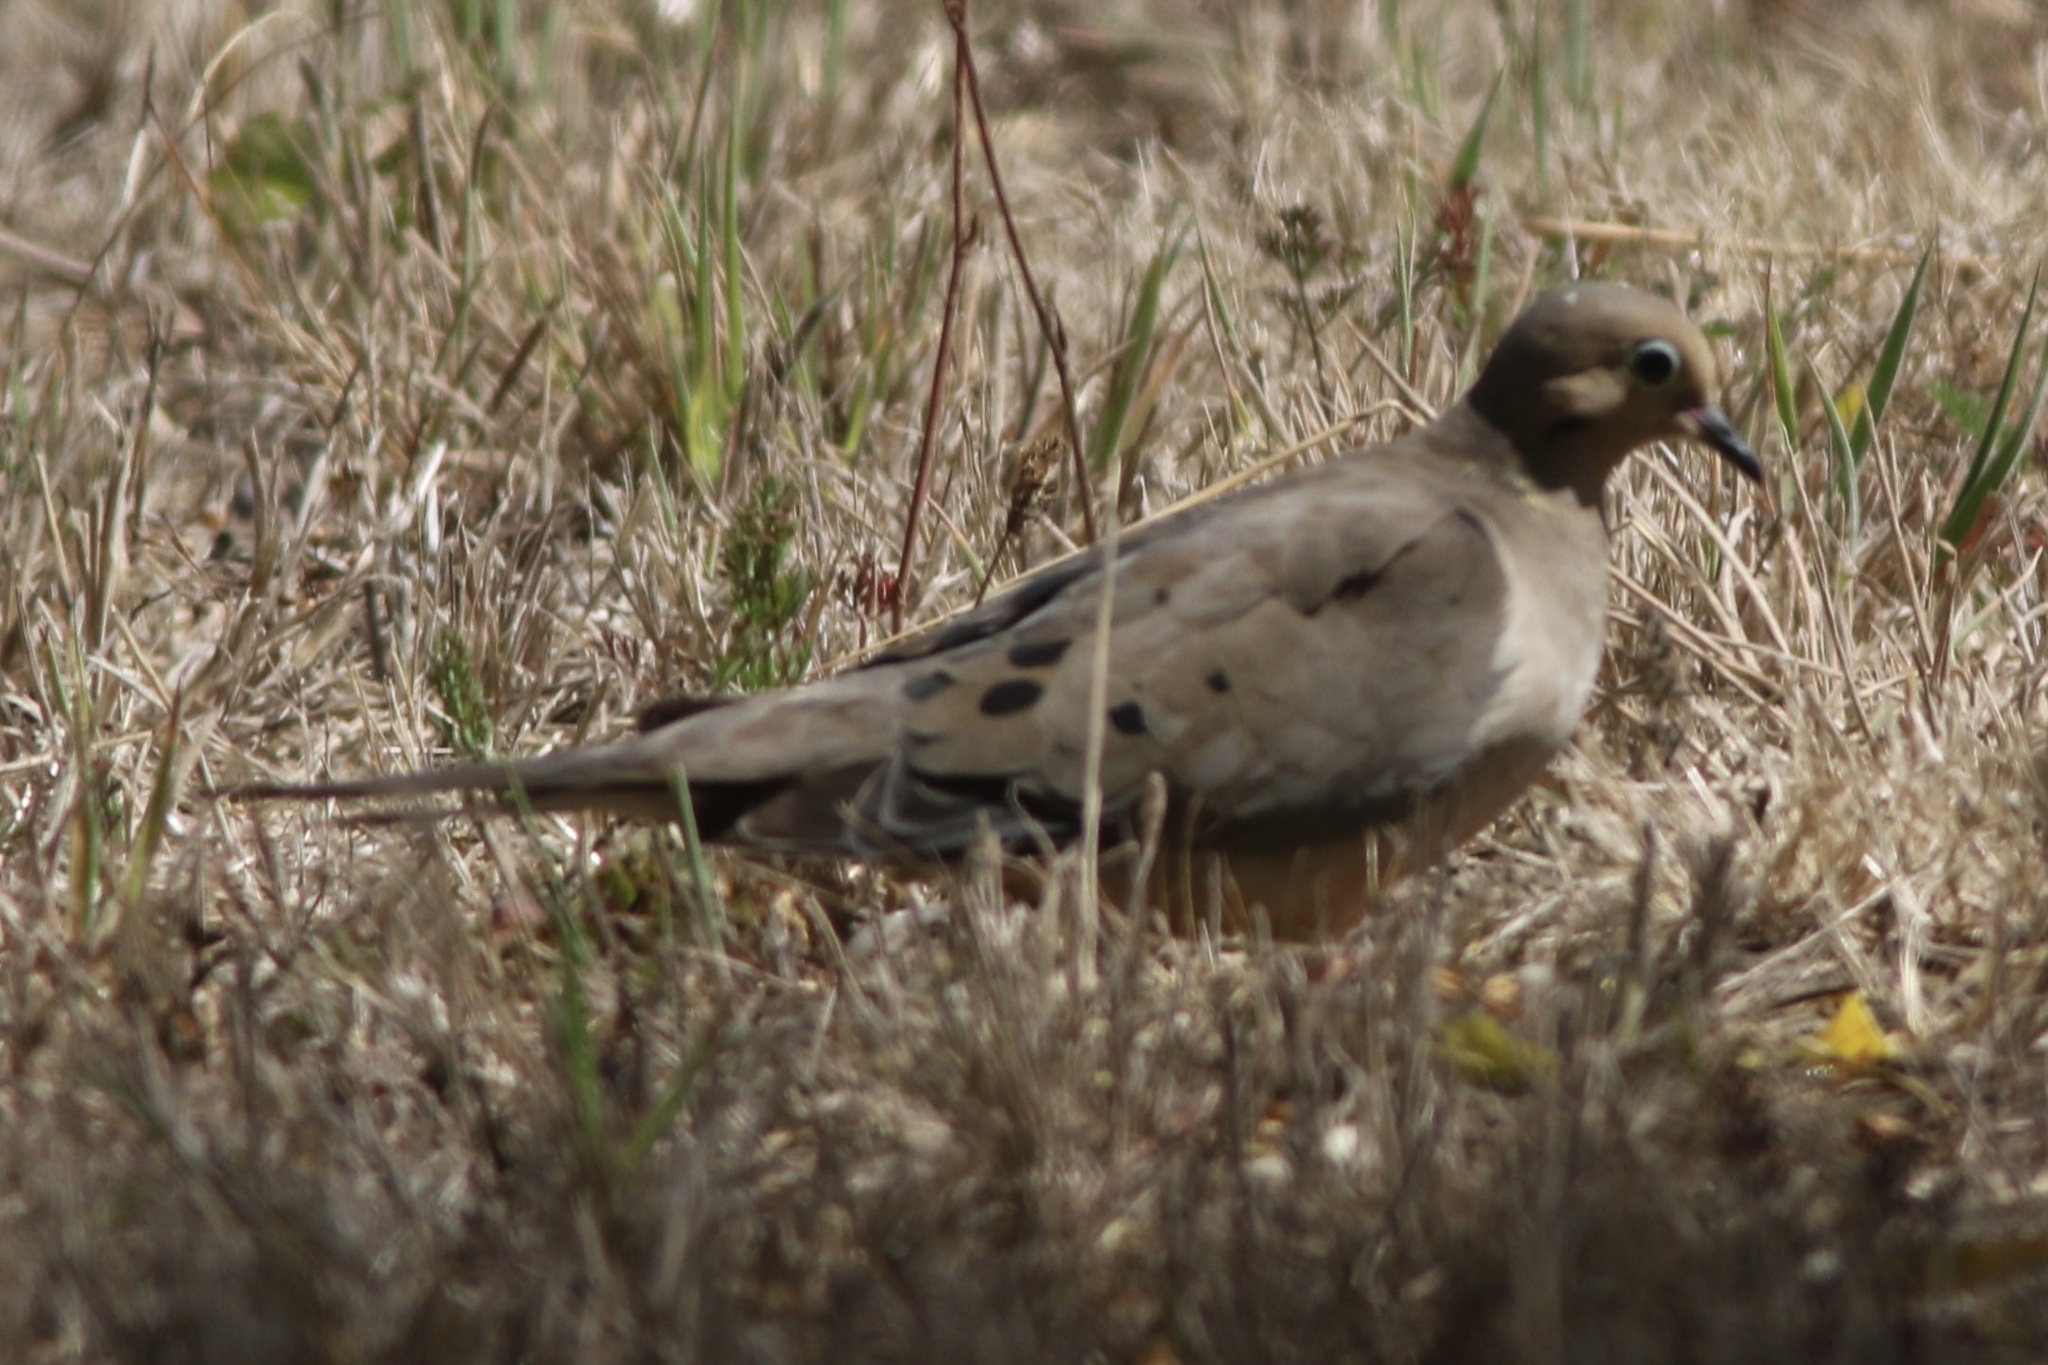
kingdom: Animalia
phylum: Chordata
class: Aves
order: Columbiformes
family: Columbidae
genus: Zenaida
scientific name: Zenaida macroura
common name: Mourning dove
